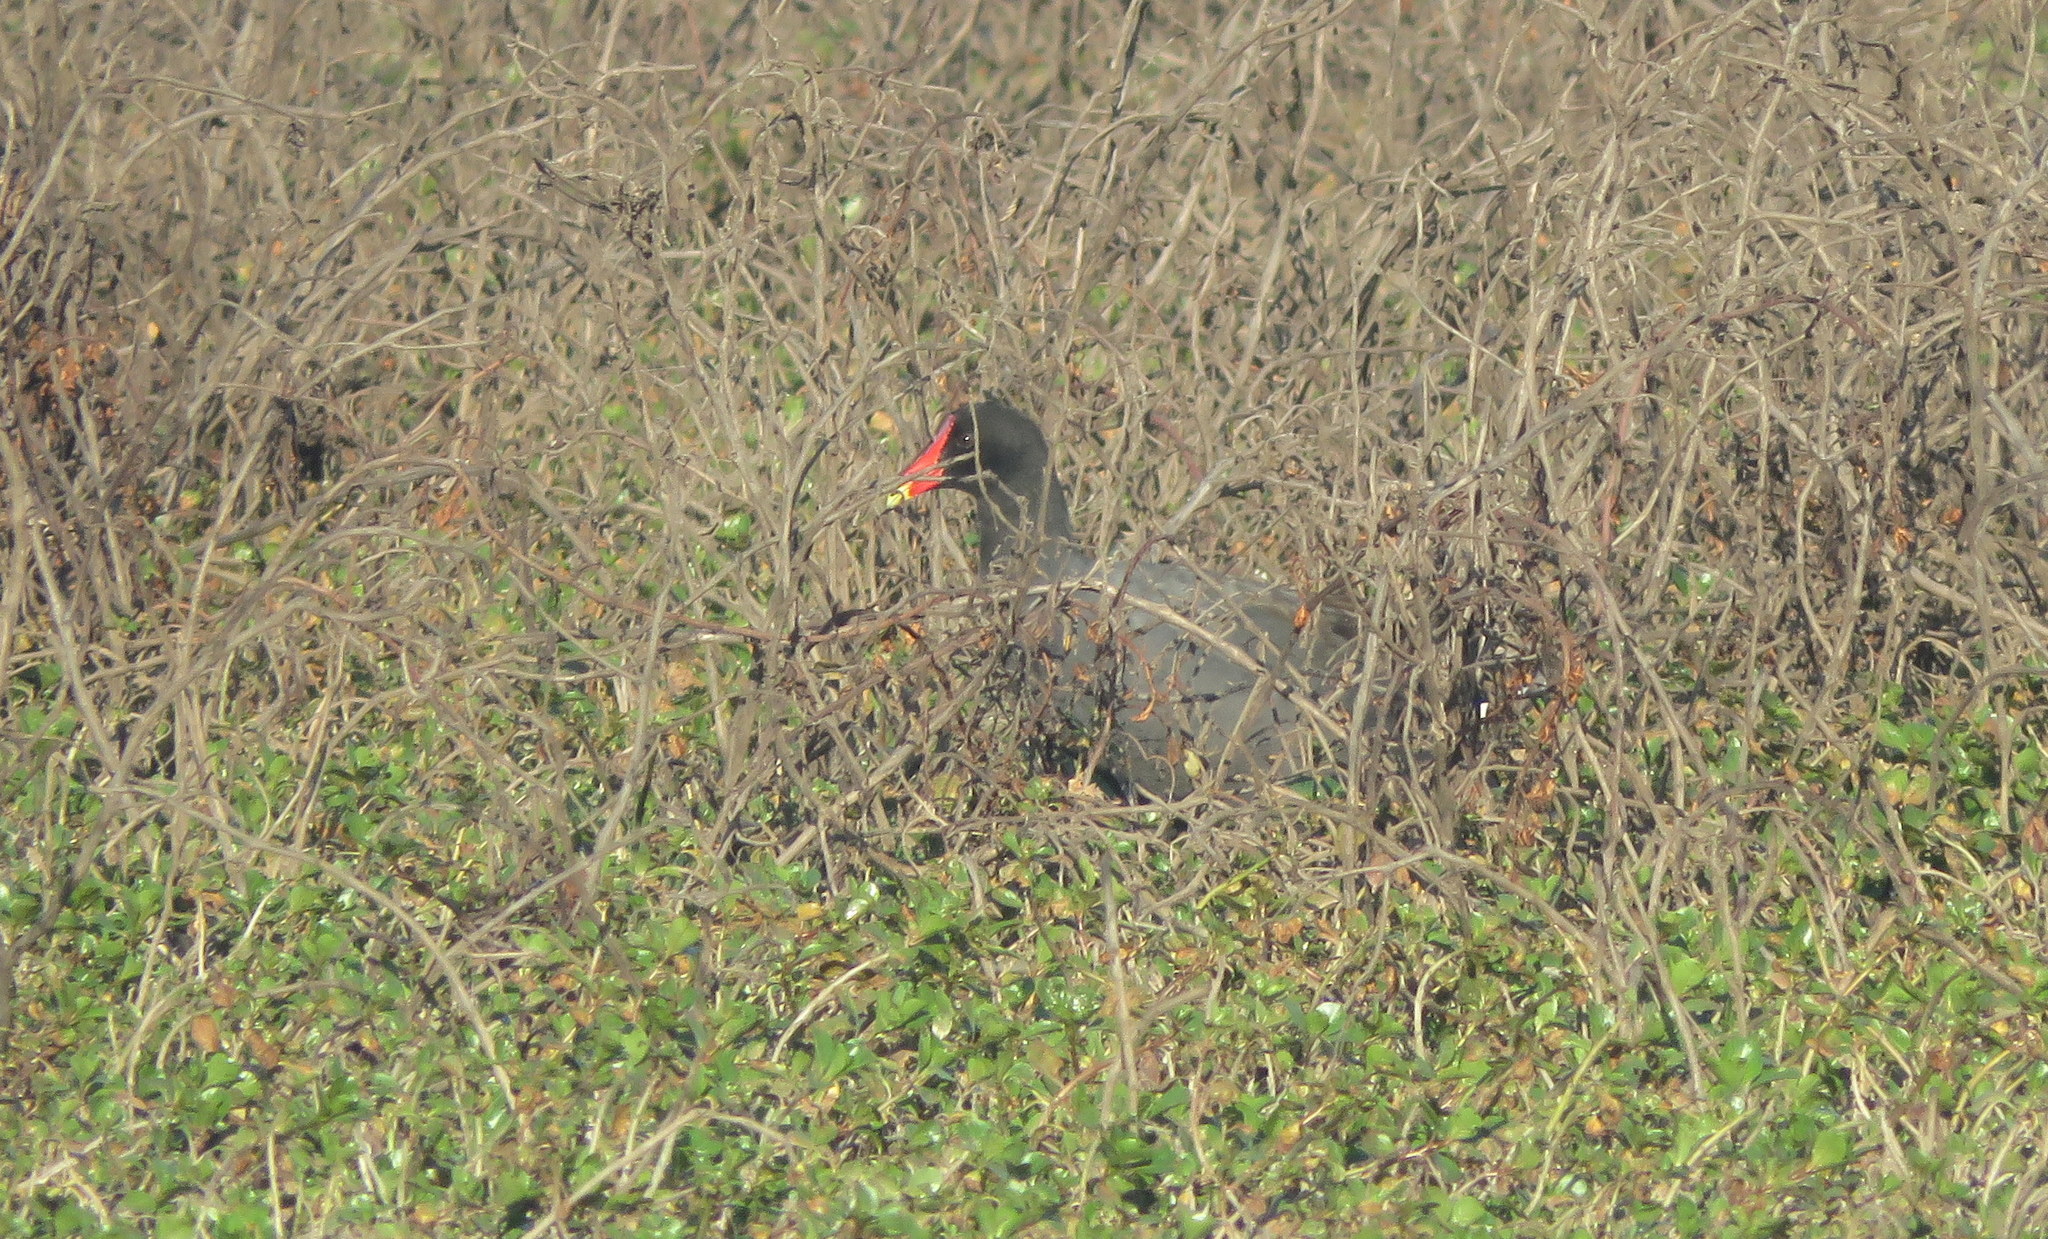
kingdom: Animalia
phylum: Chordata
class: Aves
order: Gruiformes
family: Rallidae
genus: Gallinula
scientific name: Gallinula chloropus
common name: Common moorhen
